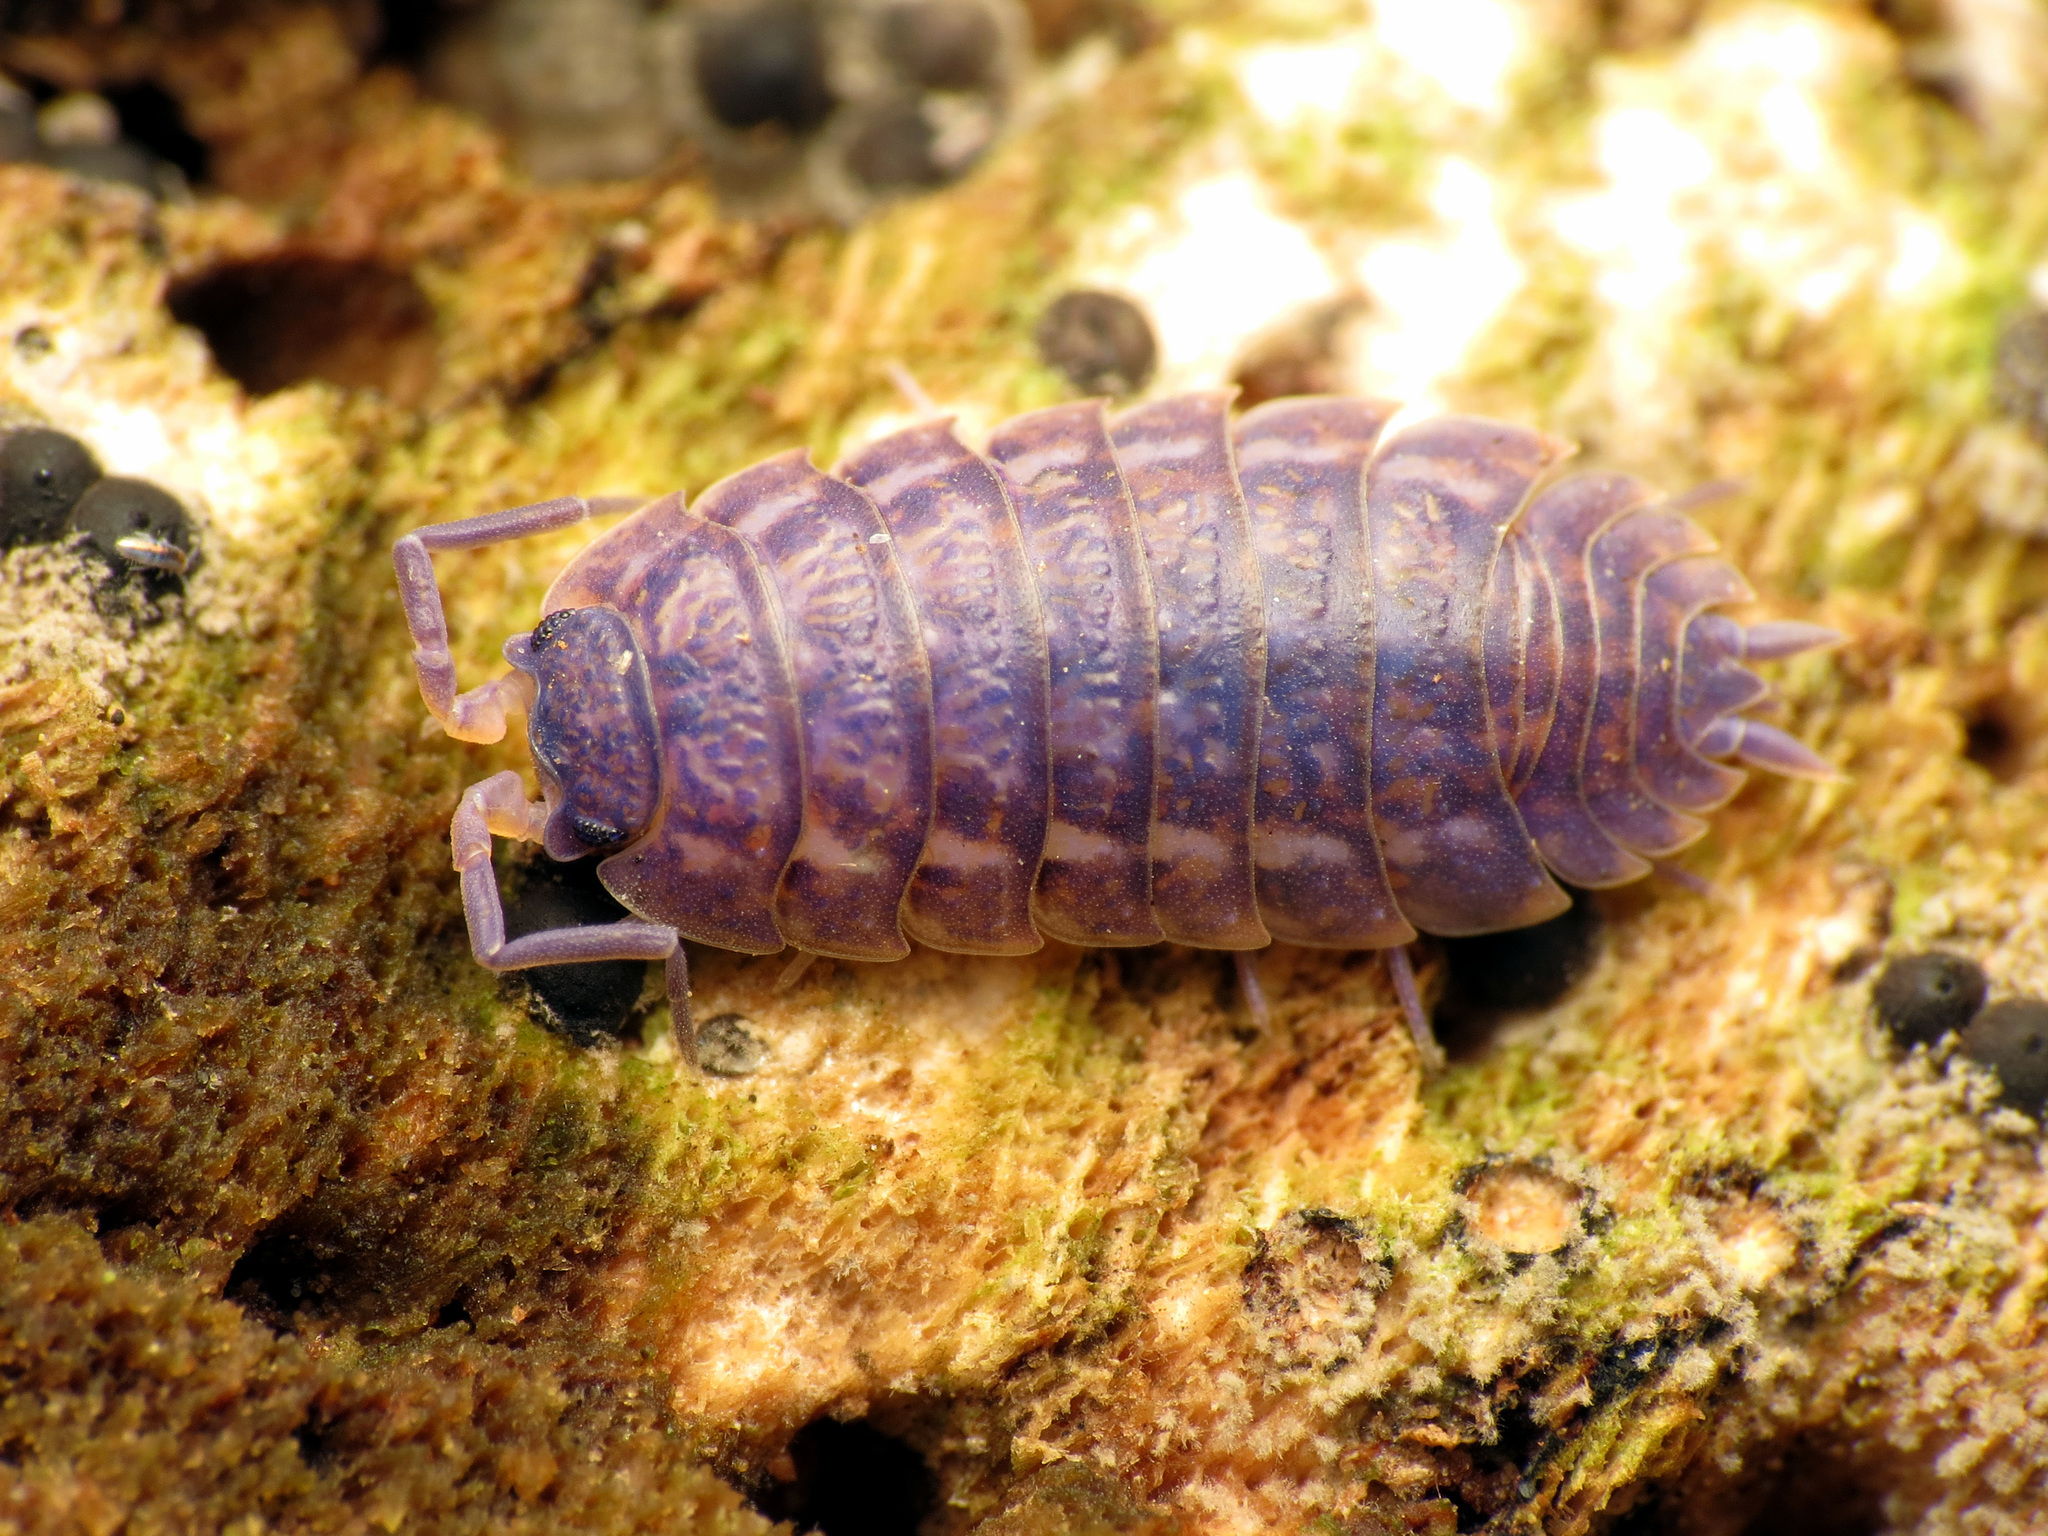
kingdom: Animalia
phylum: Arthropoda
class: Malacostraca
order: Isopoda
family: Trachelipodidae
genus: Trachelipus
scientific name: Trachelipus rathkii
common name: Isopod
